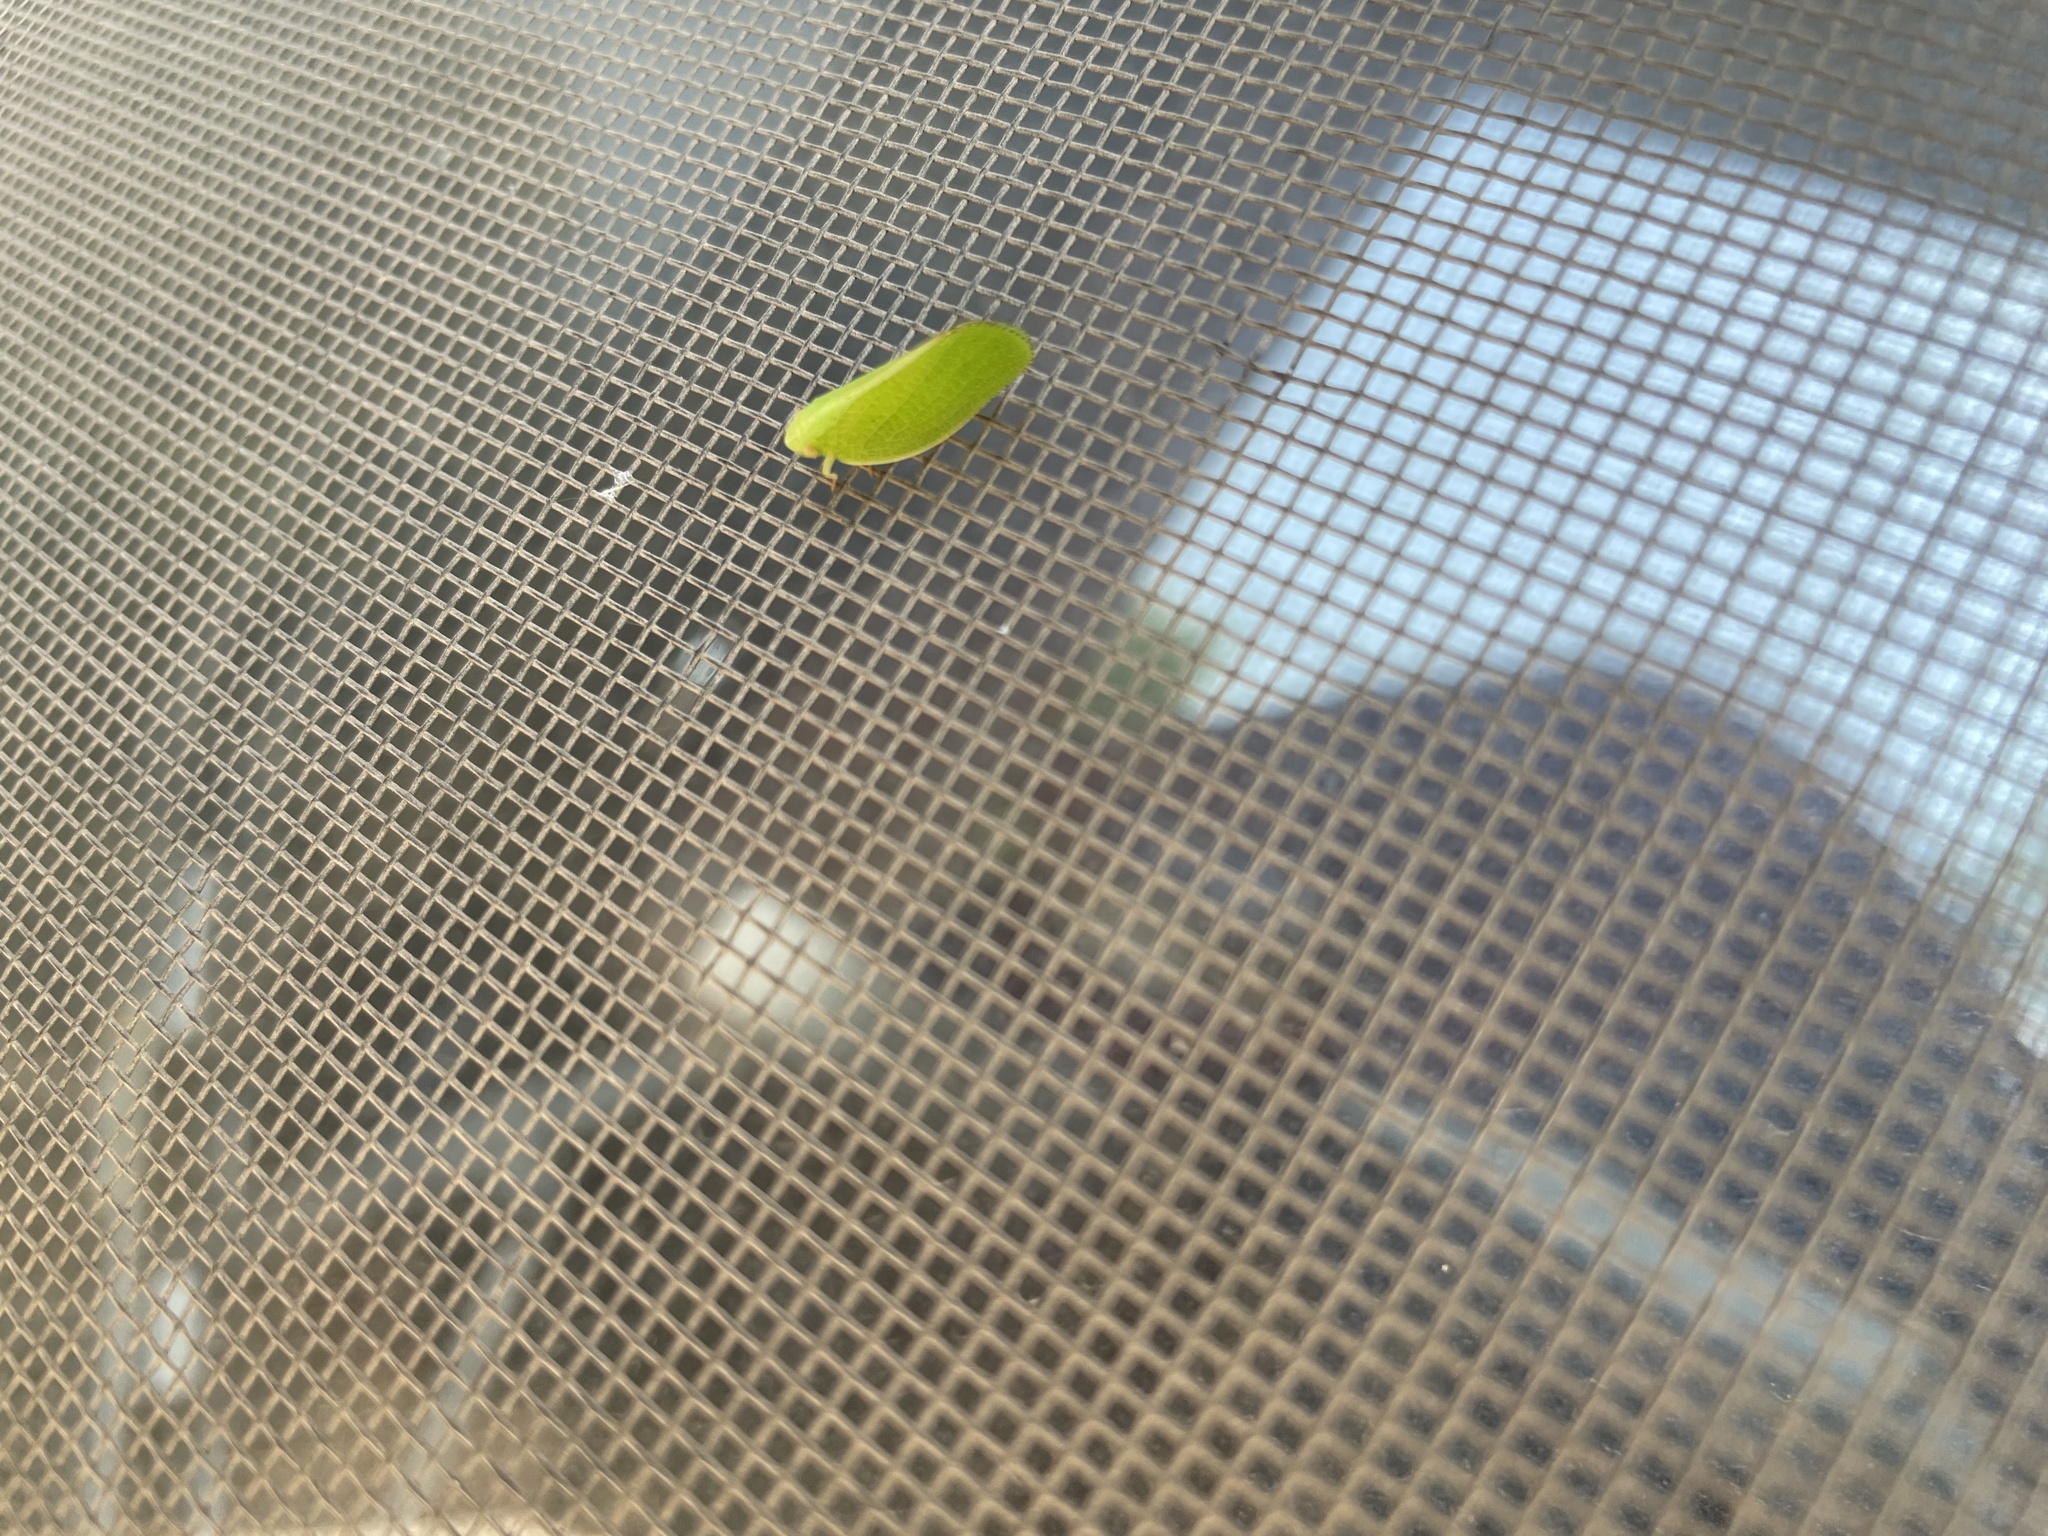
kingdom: Animalia
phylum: Arthropoda
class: Insecta
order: Hemiptera
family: Acanaloniidae
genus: Acanalonia
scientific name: Acanalonia conica
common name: Green cone-headed planthopper
